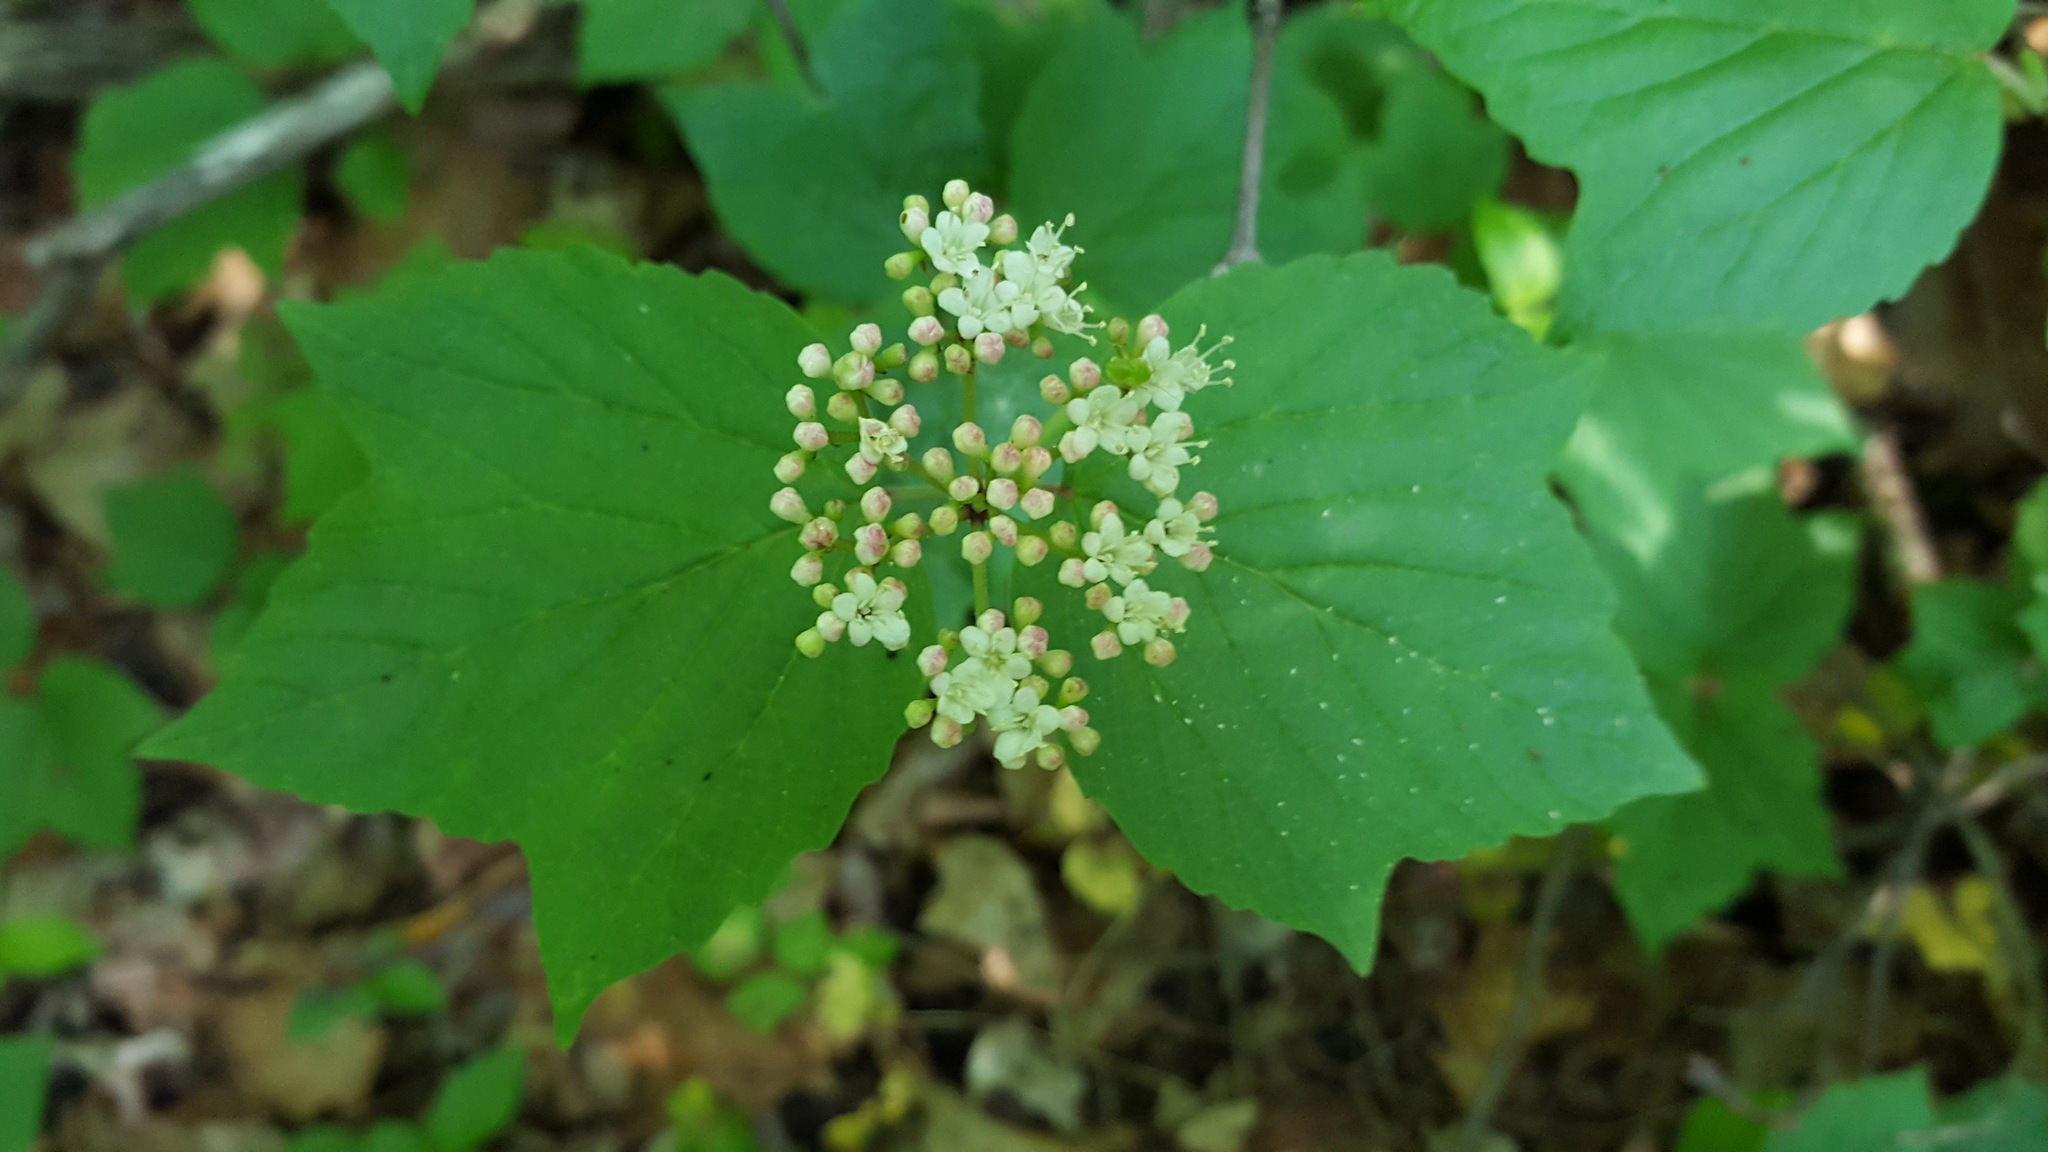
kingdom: Plantae
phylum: Tracheophyta
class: Magnoliopsida
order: Dipsacales
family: Viburnaceae
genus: Viburnum
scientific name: Viburnum acerifolium
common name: Dockmackie
